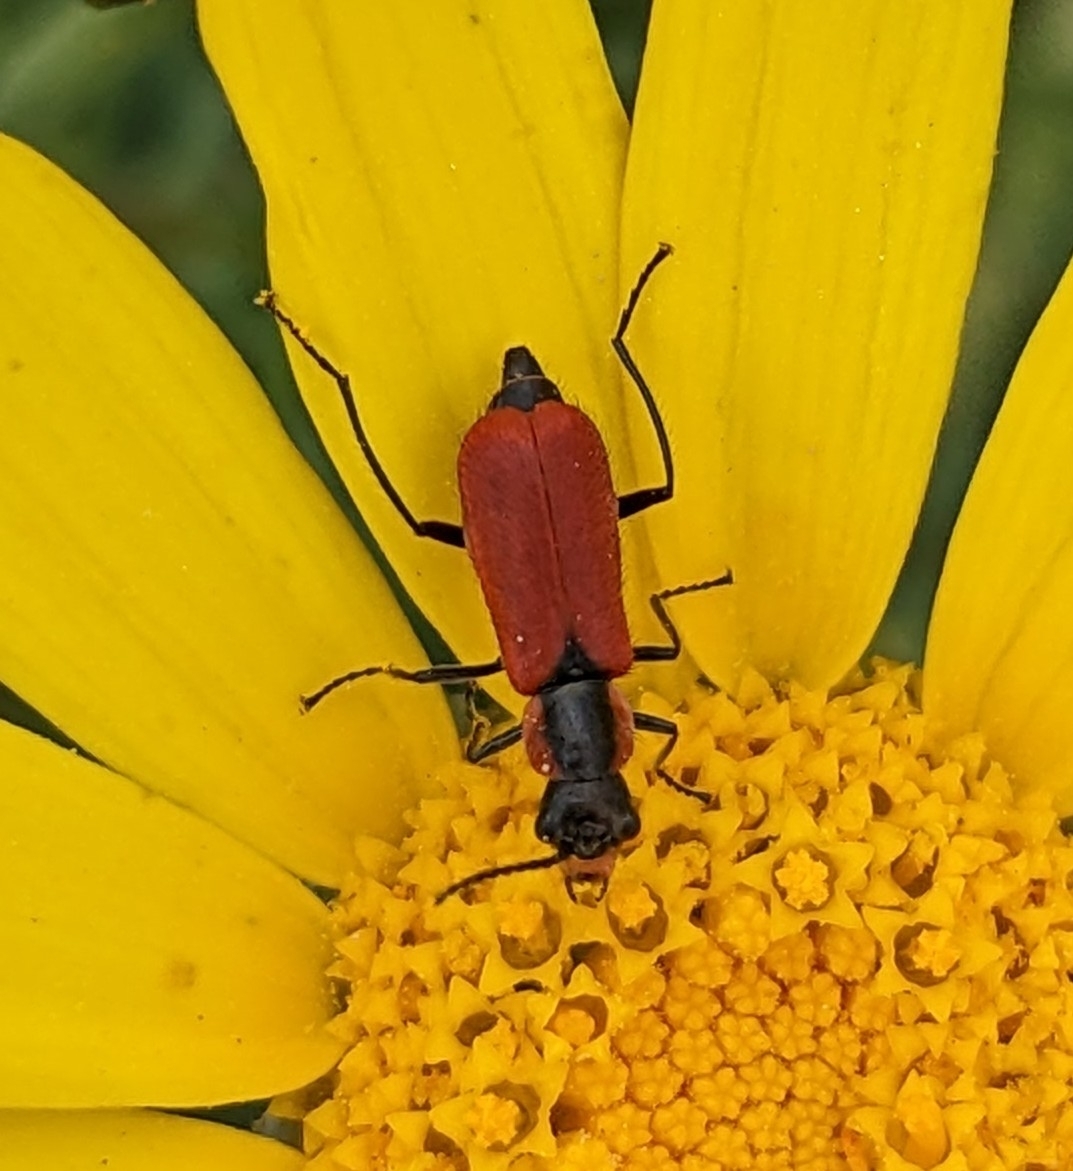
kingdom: Animalia
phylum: Arthropoda
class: Insecta
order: Coleoptera
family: Melyridae
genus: Malachius
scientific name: Malachius coccineus
